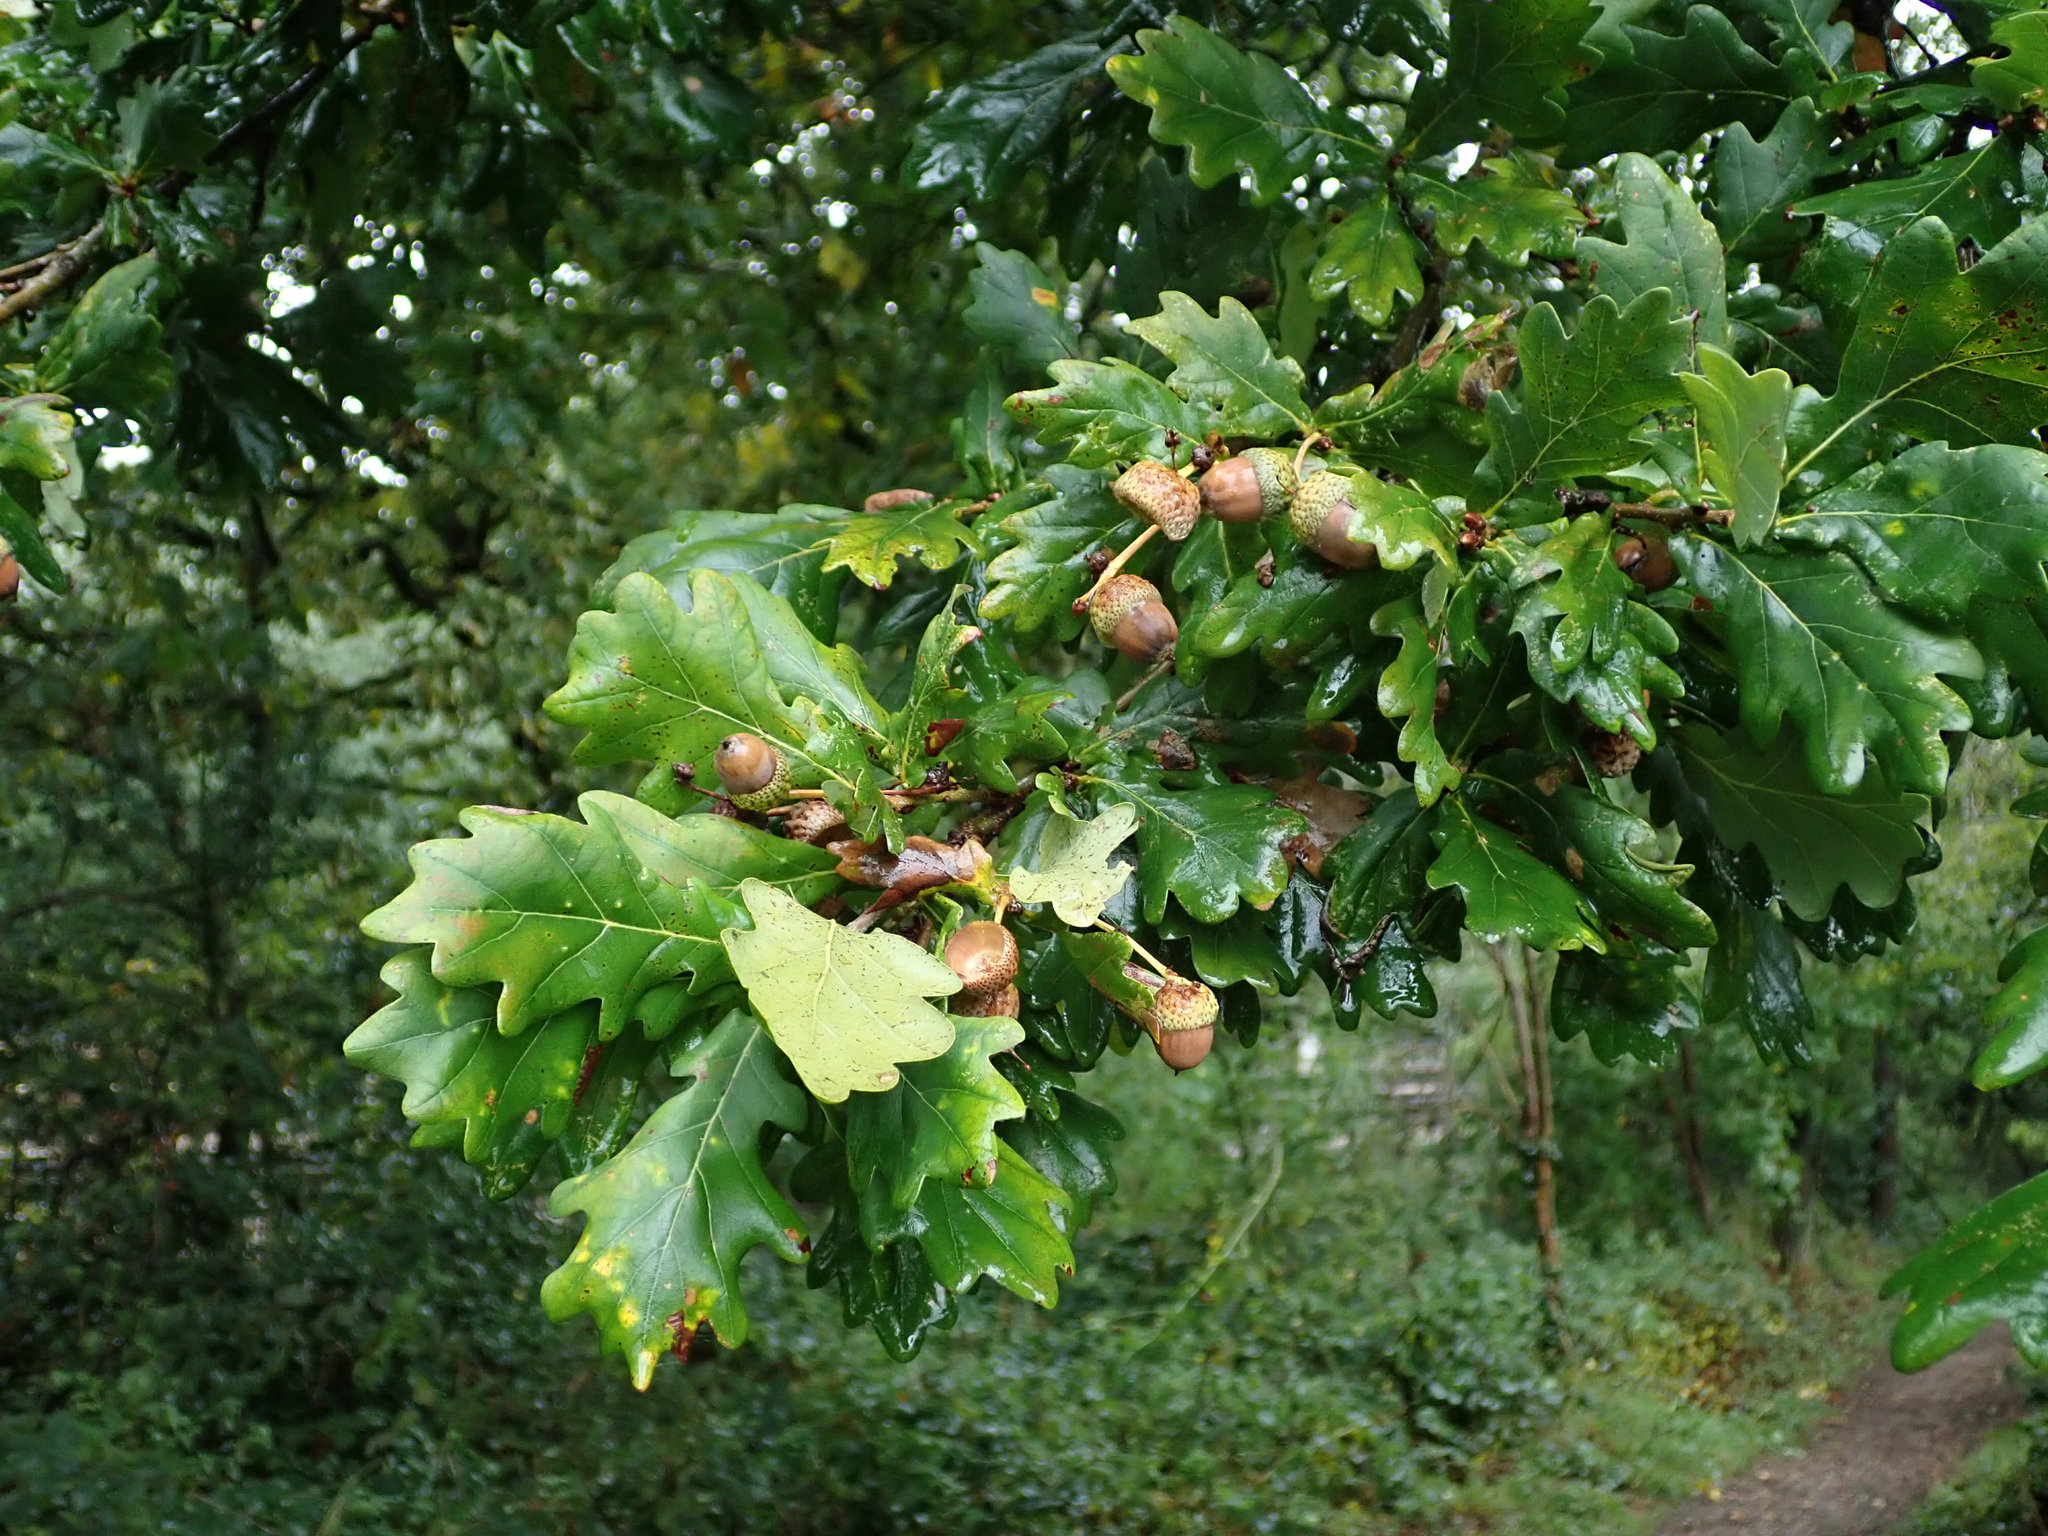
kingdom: Plantae
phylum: Tracheophyta
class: Magnoliopsida
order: Fagales
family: Fagaceae
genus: Quercus
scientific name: Quercus robur
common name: Pedunculate oak
